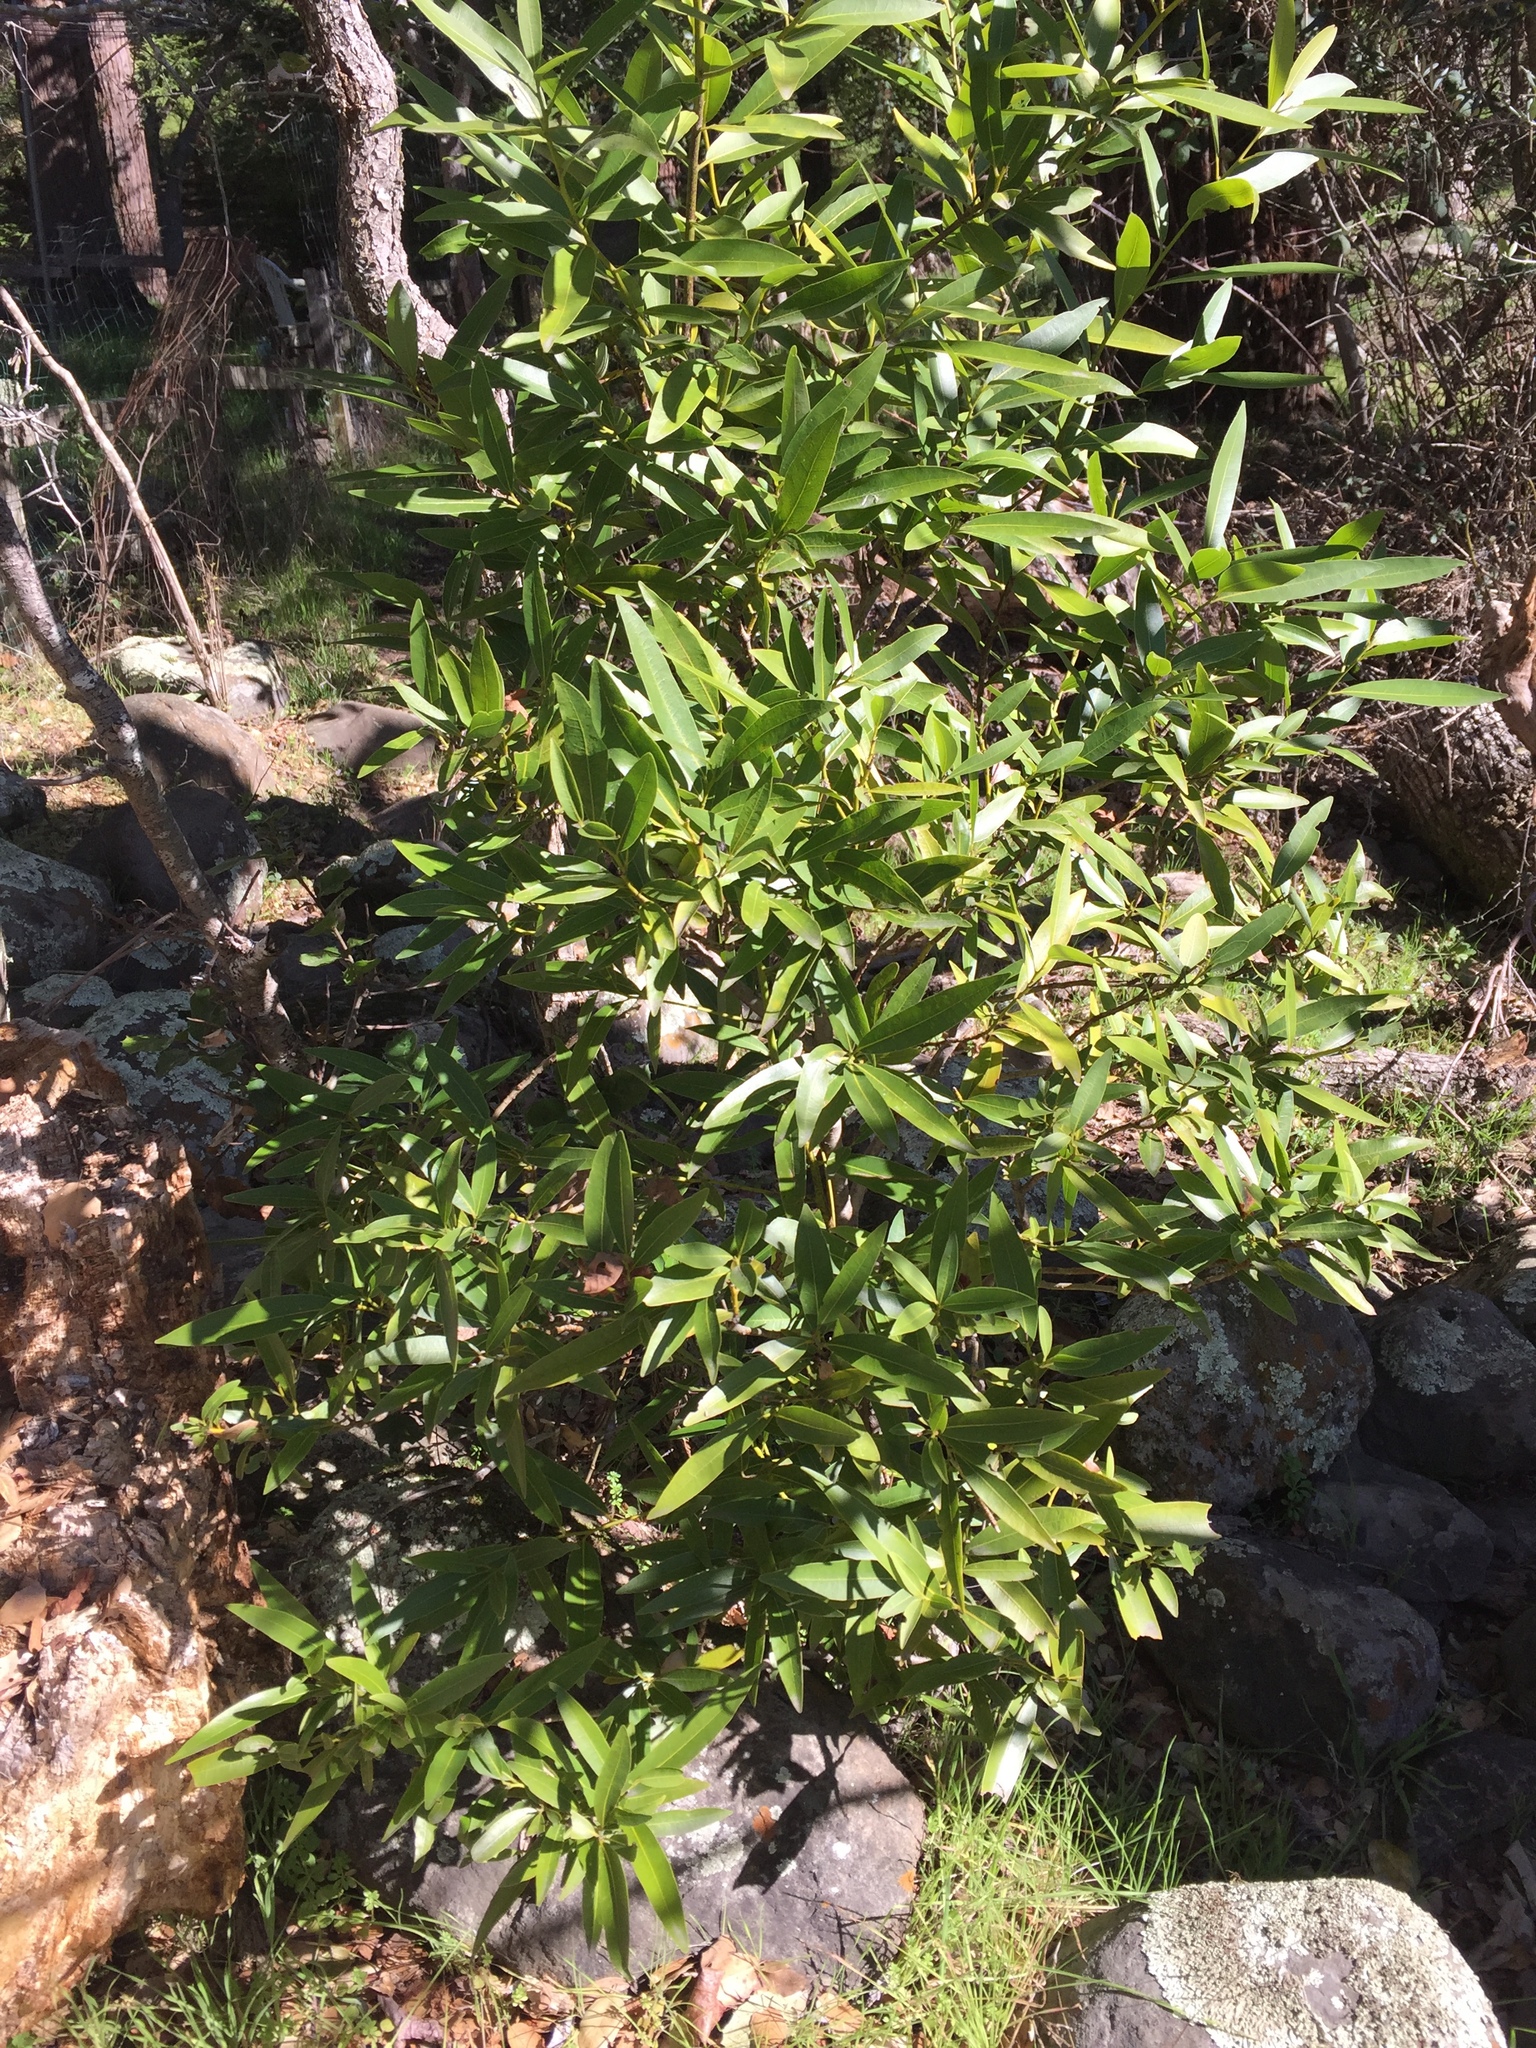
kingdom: Plantae
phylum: Tracheophyta
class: Magnoliopsida
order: Laurales
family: Lauraceae
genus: Umbellularia
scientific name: Umbellularia californica
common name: California bay
